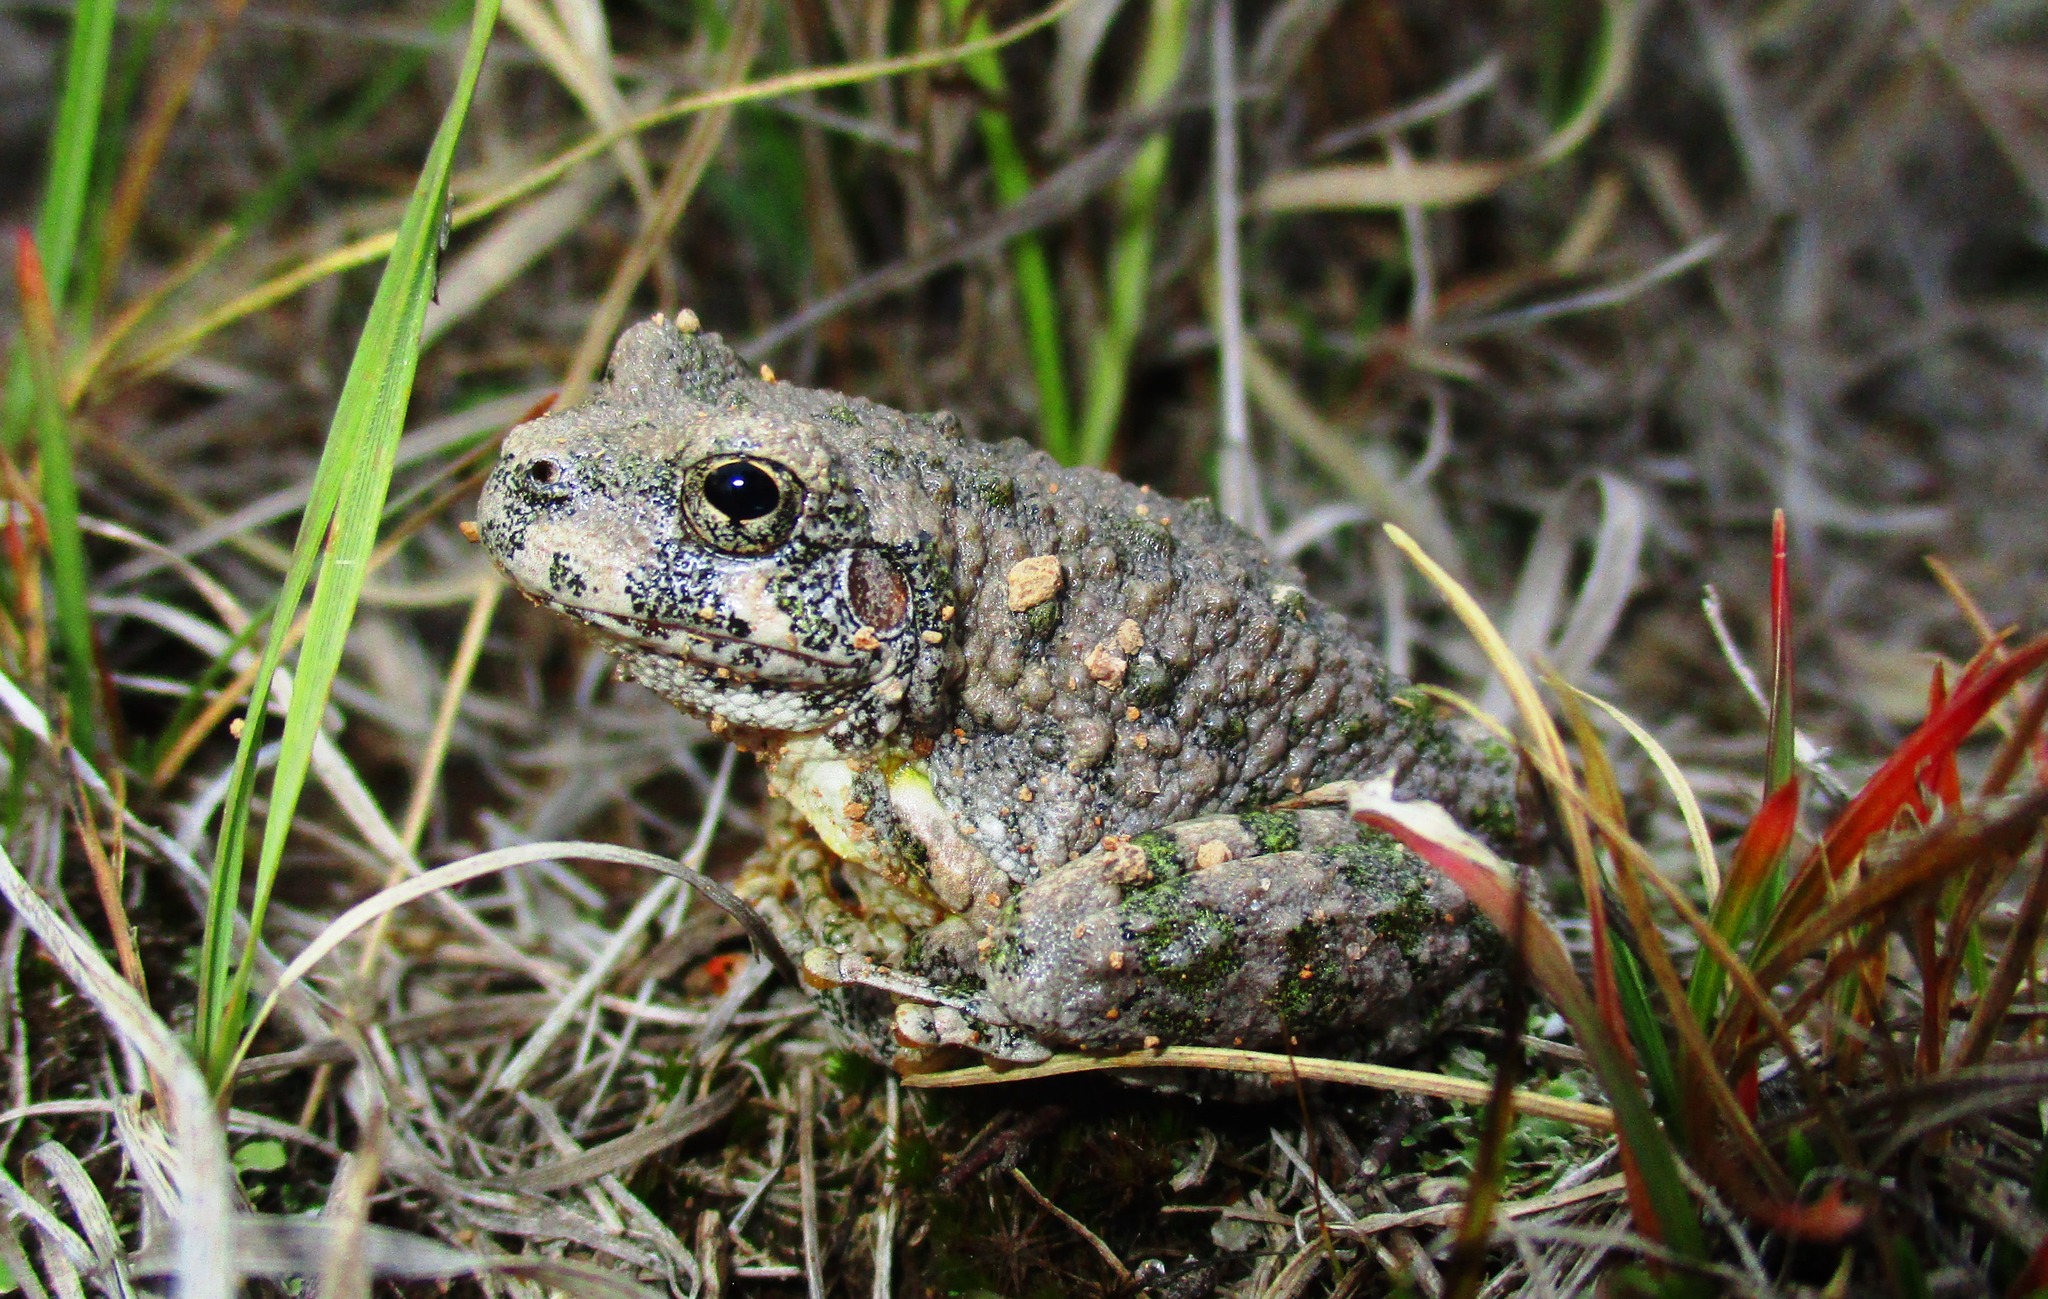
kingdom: Animalia
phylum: Chordata
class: Amphibia
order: Anura
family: Hylidae
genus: Dryophytes
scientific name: Dryophytes arenicolor
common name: Canyon treefrog
